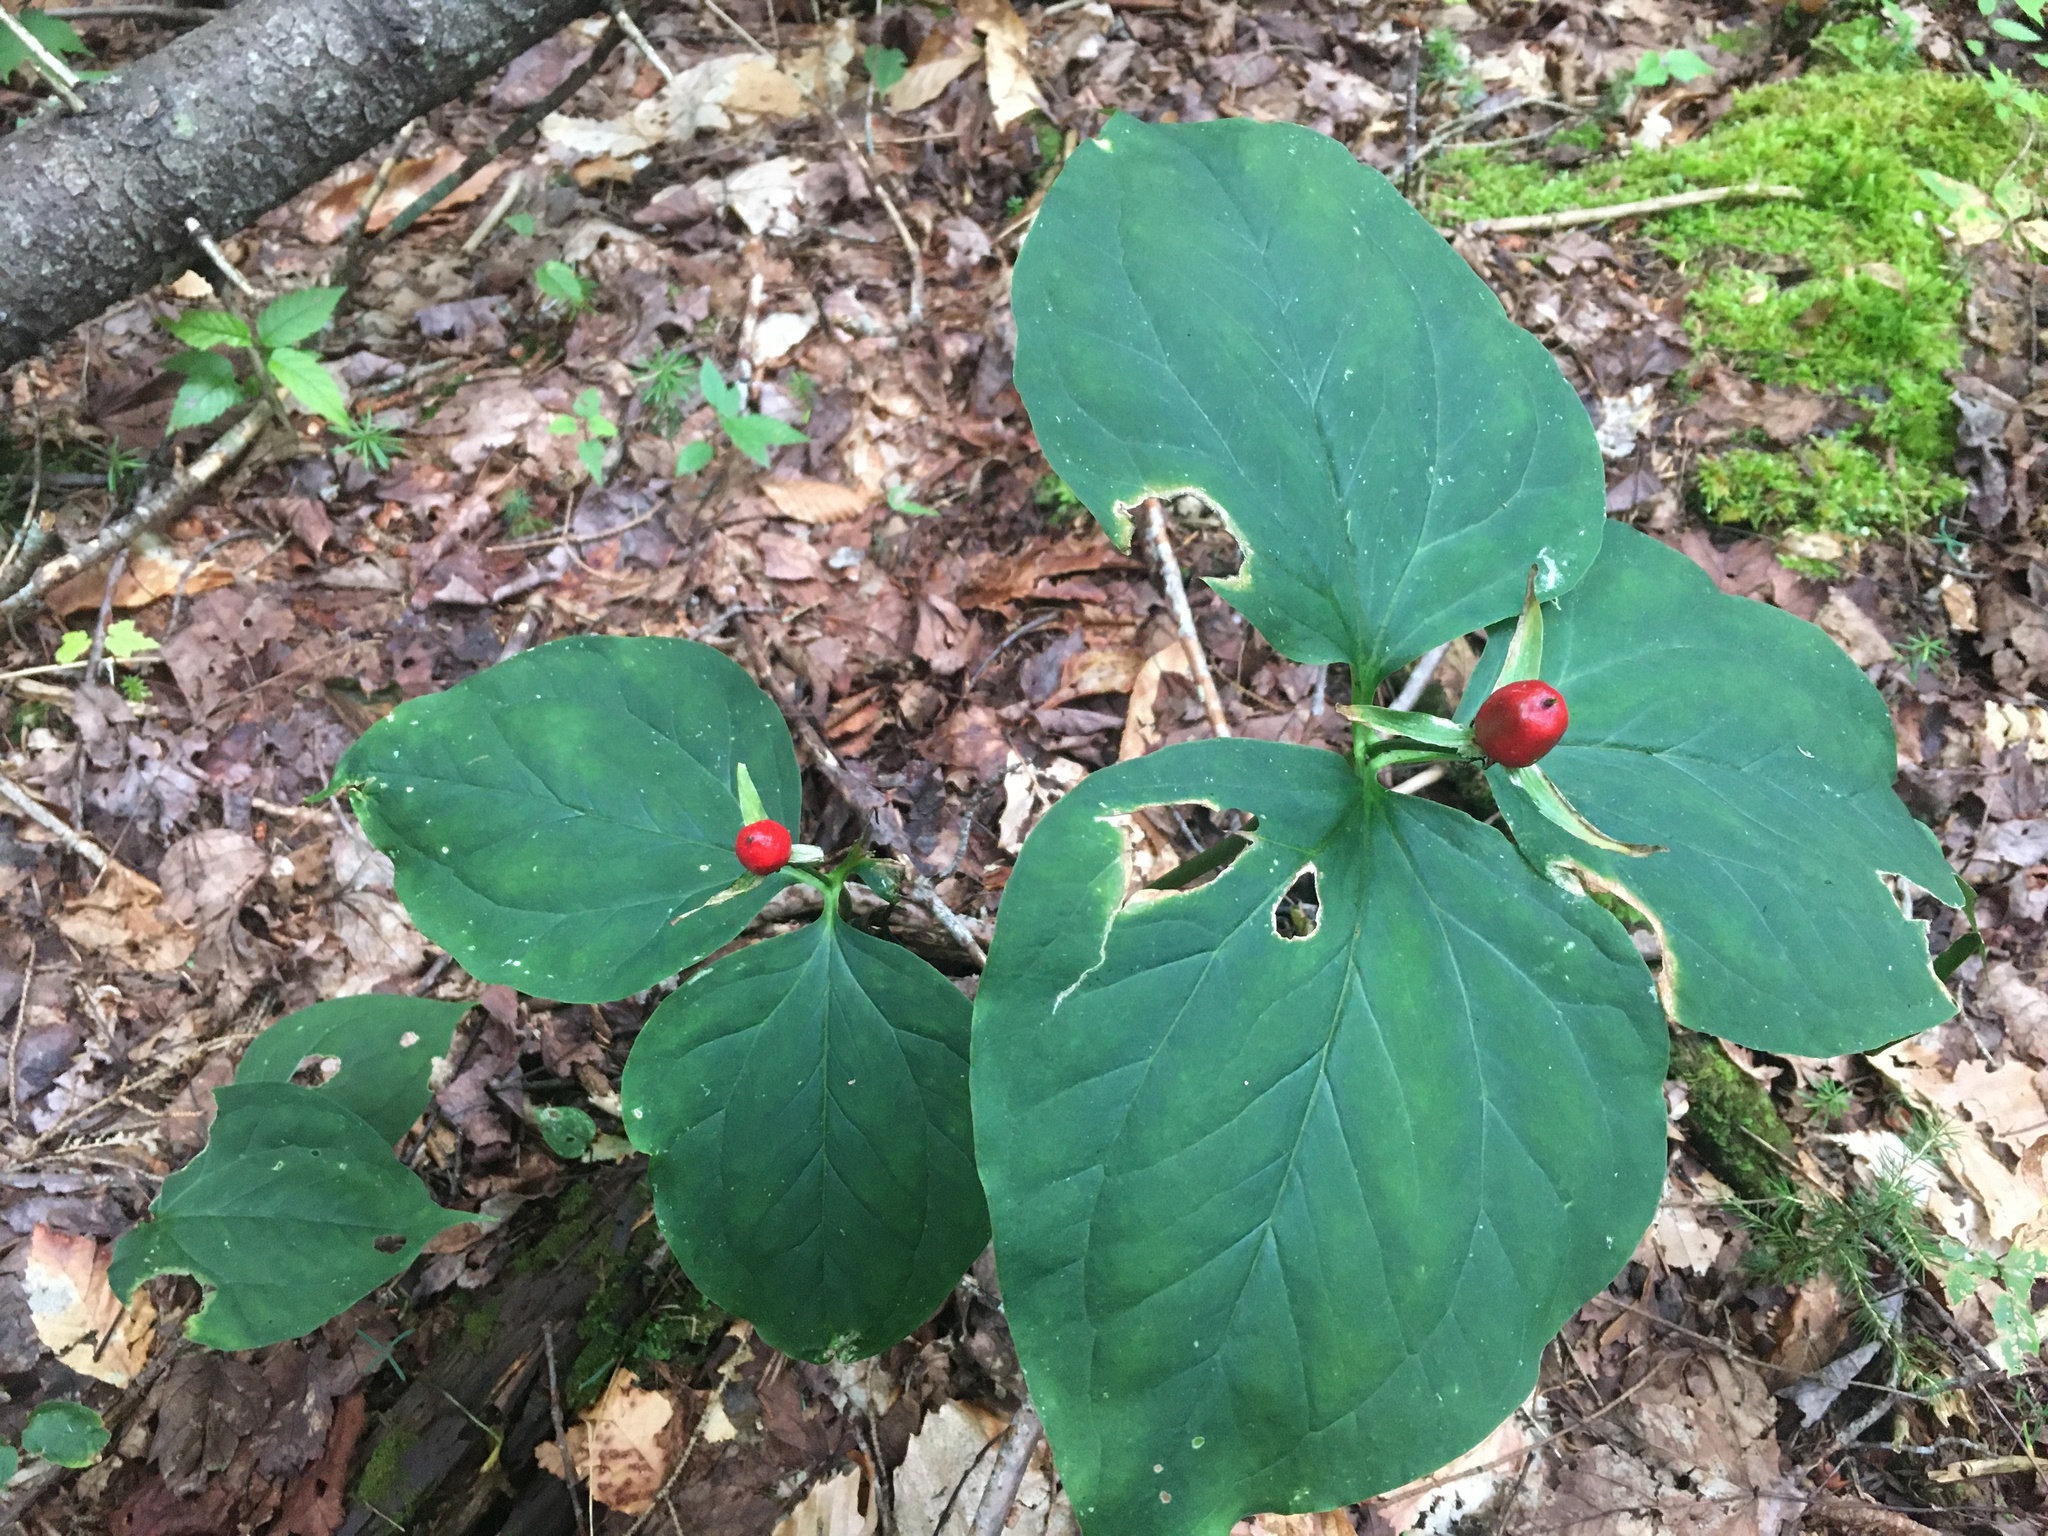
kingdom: Plantae
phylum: Tracheophyta
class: Liliopsida
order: Liliales
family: Melanthiaceae
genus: Trillium
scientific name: Trillium undulatum
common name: Paint trillium
